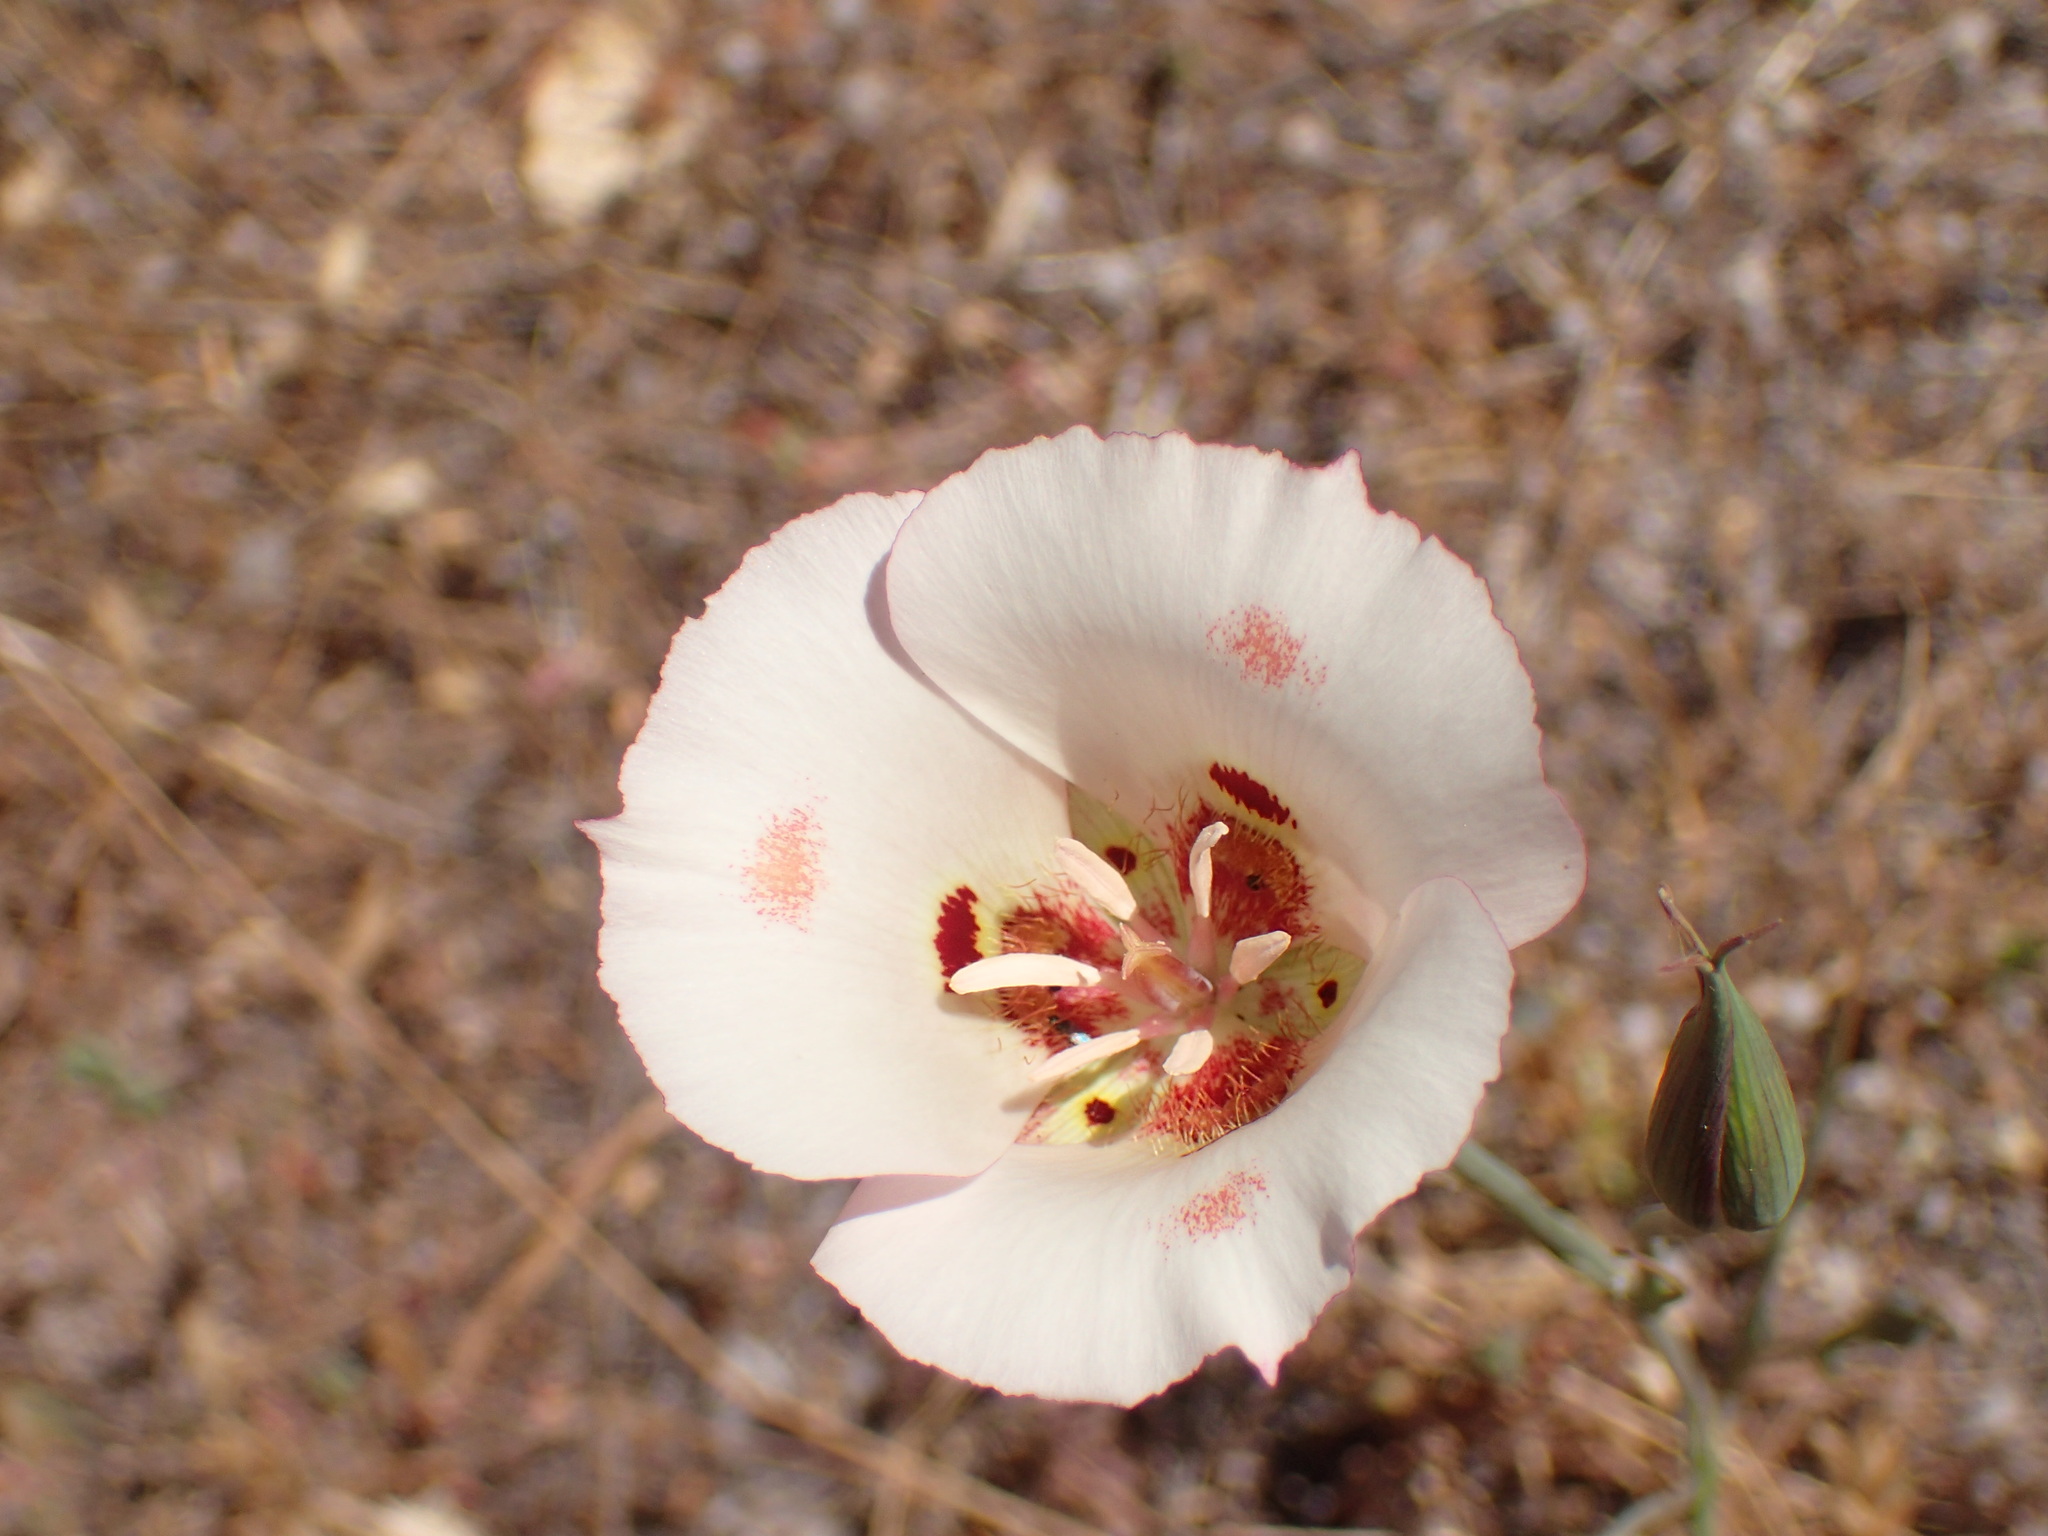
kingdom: Plantae
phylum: Tracheophyta
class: Liliopsida
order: Liliales
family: Liliaceae
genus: Calochortus
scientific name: Calochortus venustus
